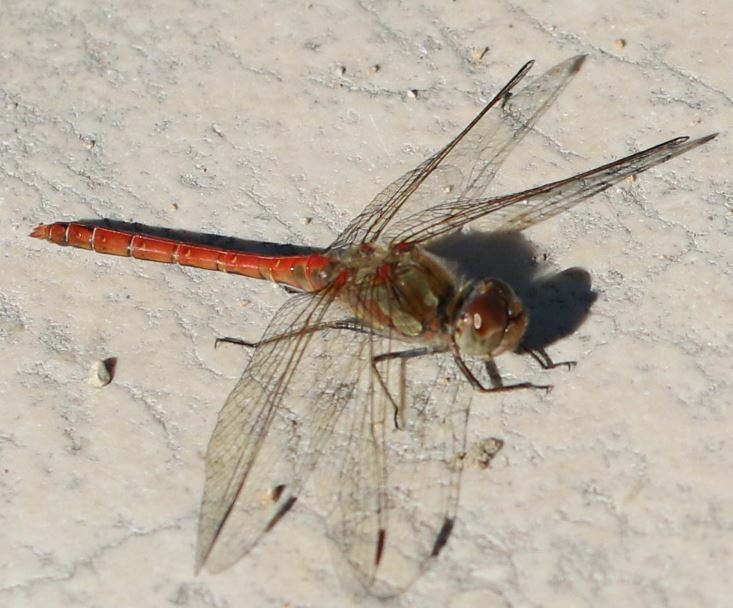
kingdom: Animalia
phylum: Arthropoda
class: Insecta
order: Odonata
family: Libellulidae
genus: Sympetrum
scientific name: Sympetrum striolatum
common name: Common darter
